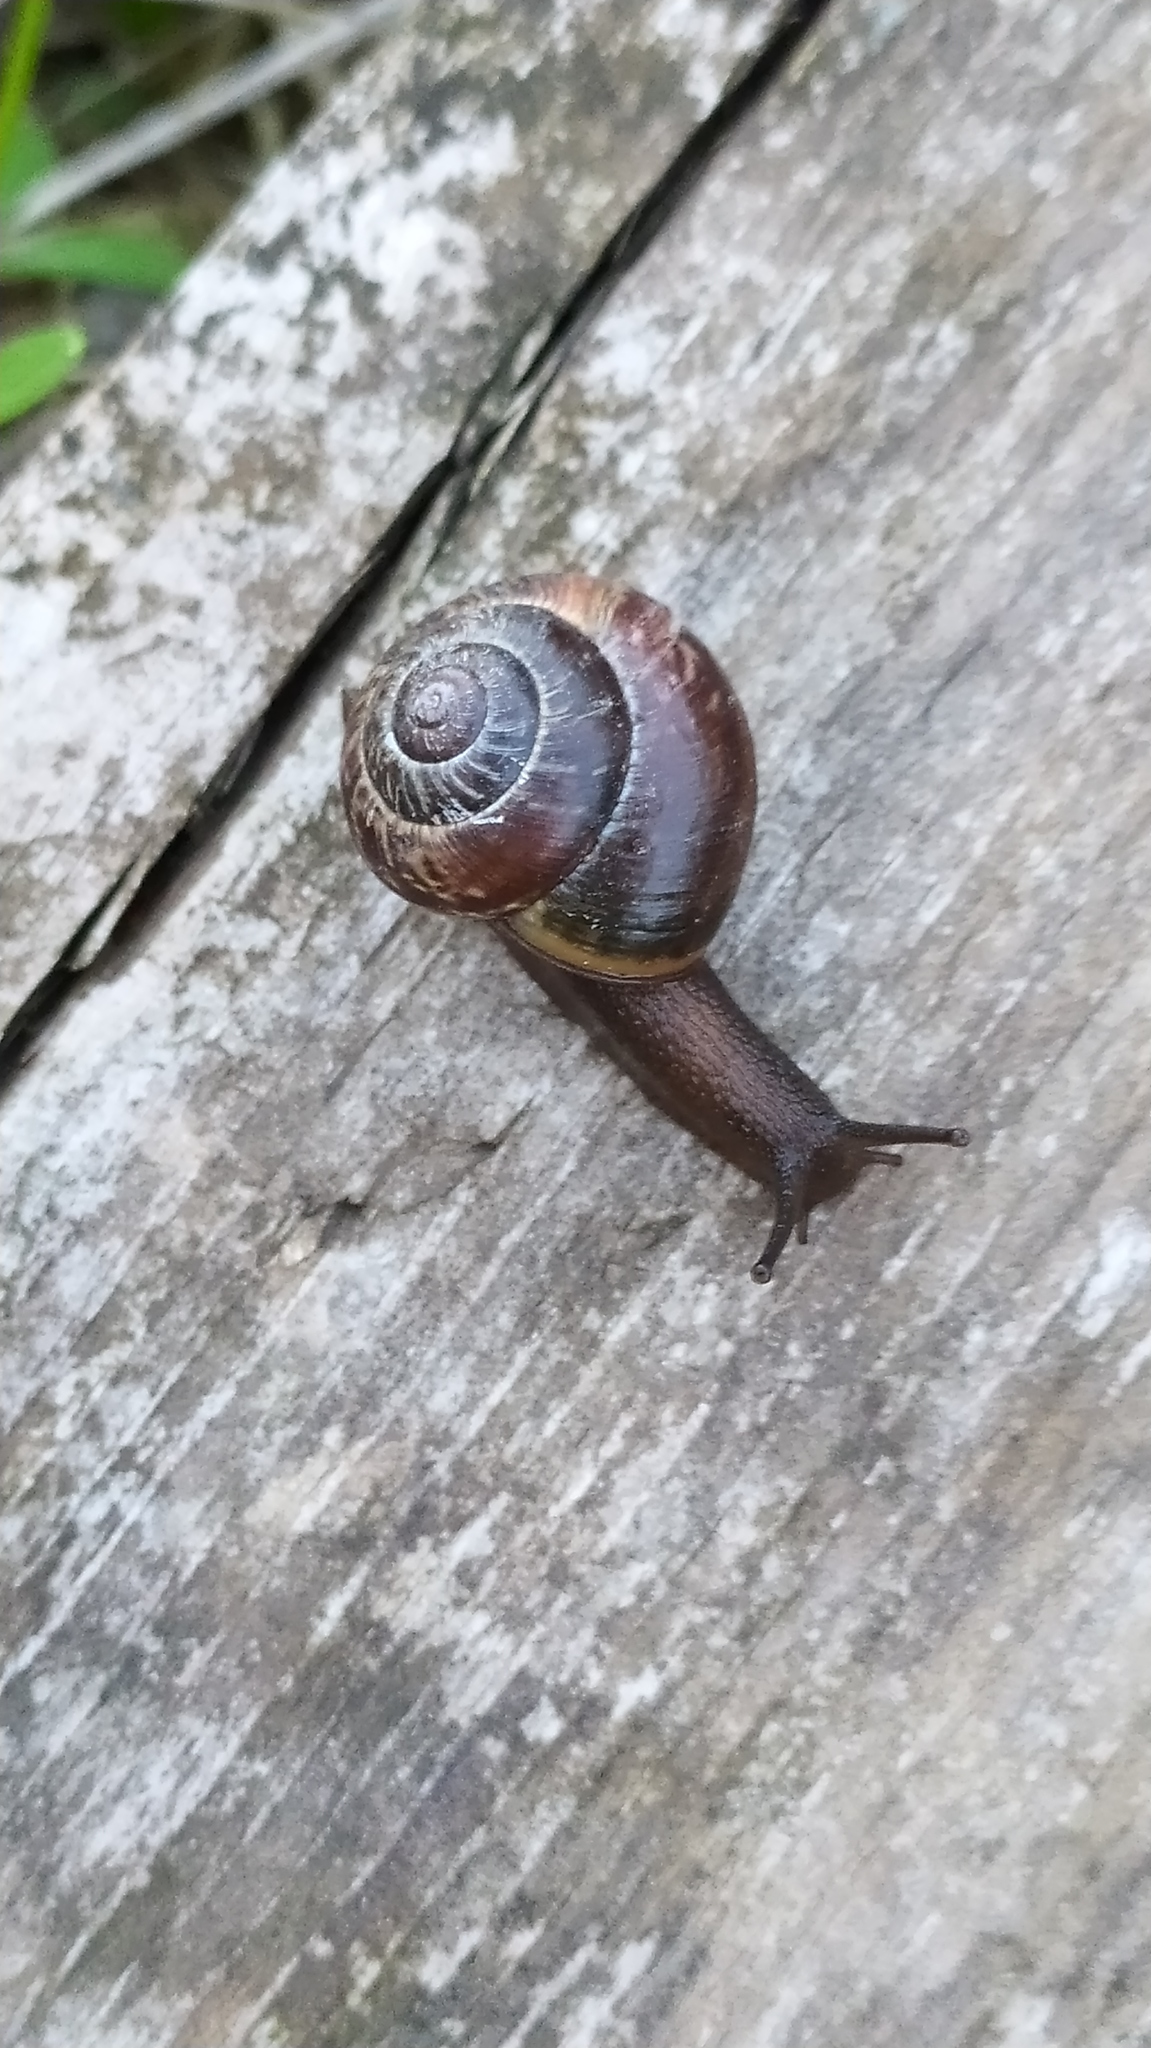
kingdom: Animalia
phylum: Mollusca
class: Gastropoda
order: Stylommatophora
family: Helicidae
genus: Arianta
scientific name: Arianta arbustorum
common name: Copse snail
